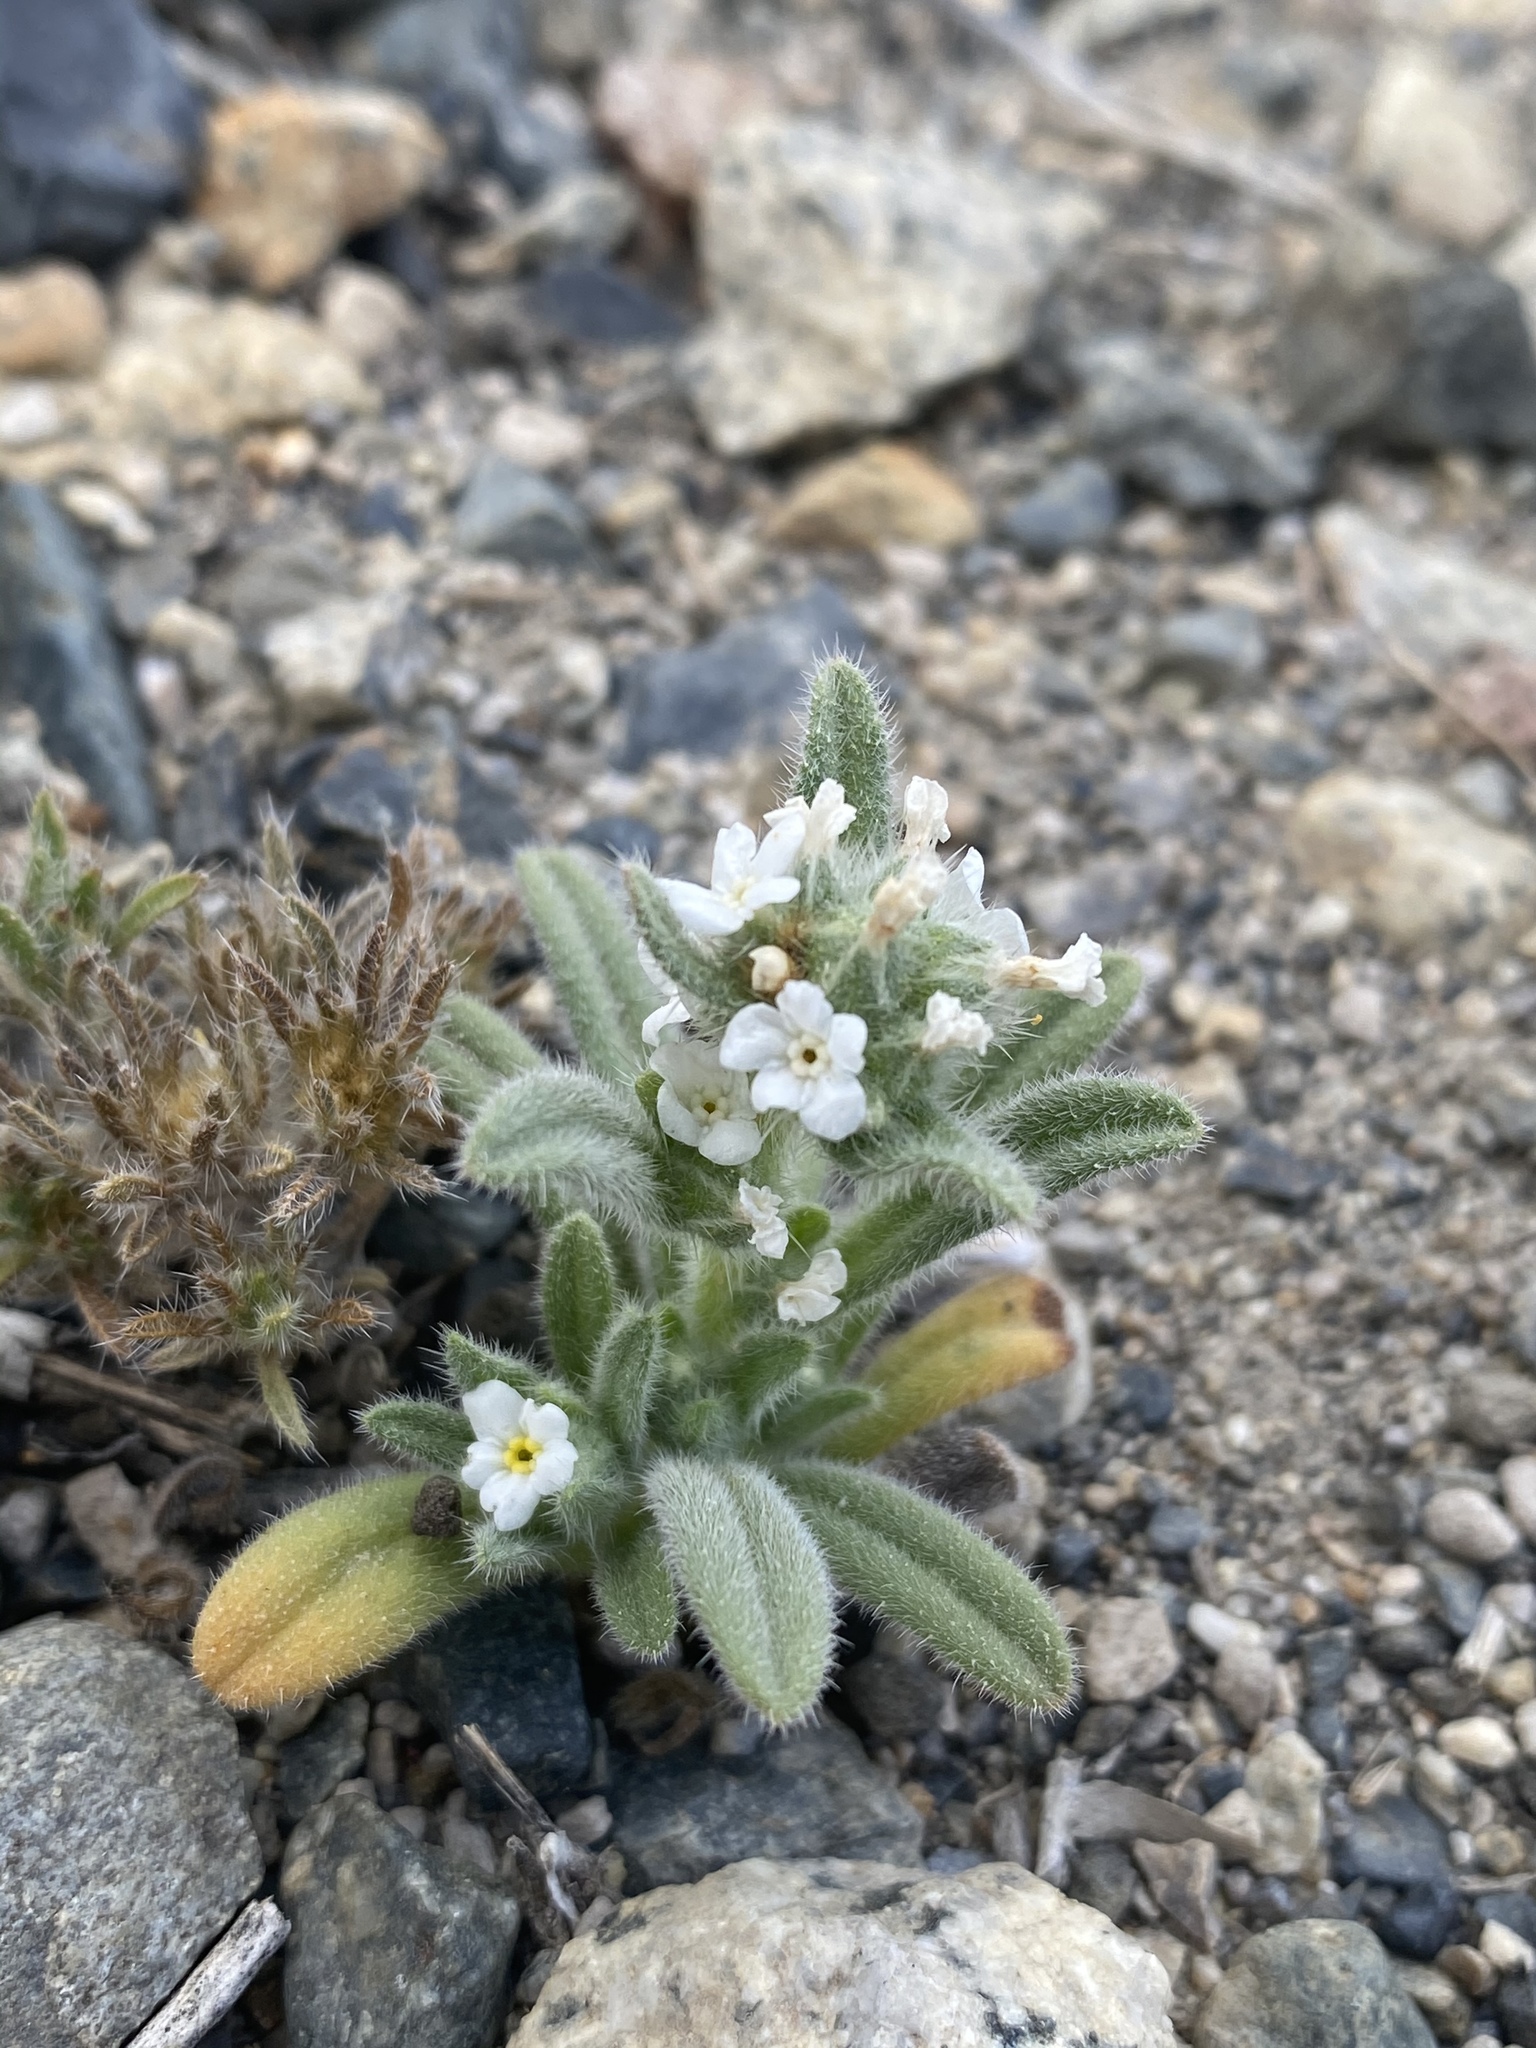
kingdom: Plantae
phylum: Tracheophyta
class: Magnoliopsida
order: Boraginales
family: Boraginaceae
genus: Amsinckiopsis
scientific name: Amsinckiopsis kingii
